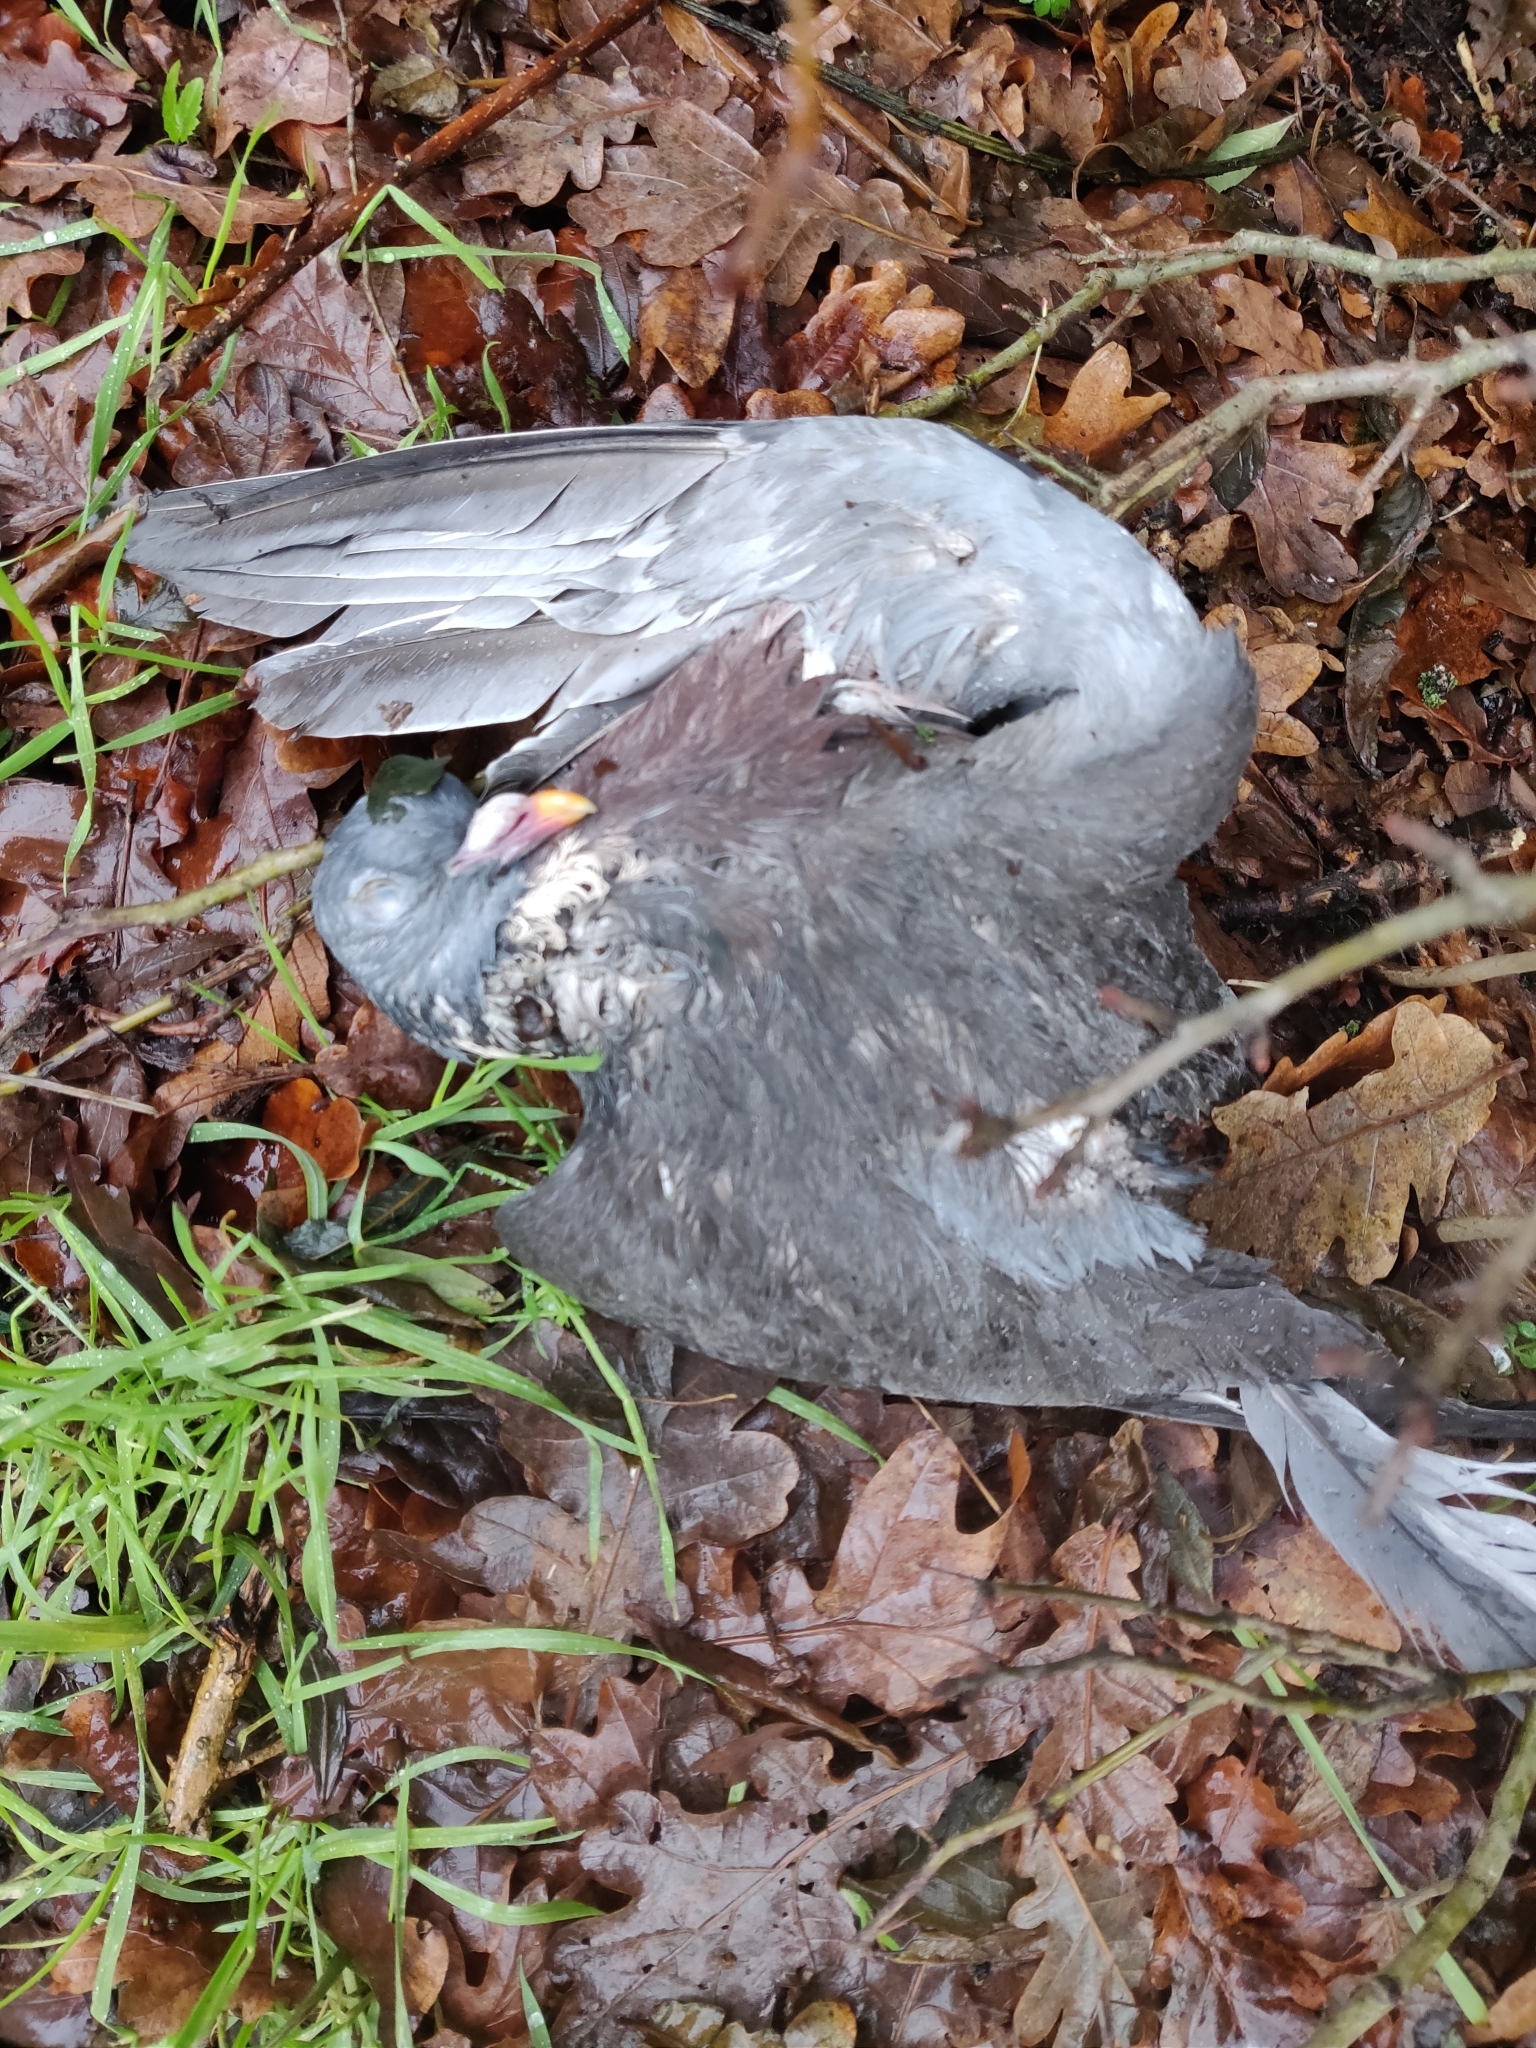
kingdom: Animalia
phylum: Chordata
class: Aves
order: Columbiformes
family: Columbidae
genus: Columba
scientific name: Columba palumbus
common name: Common wood pigeon
